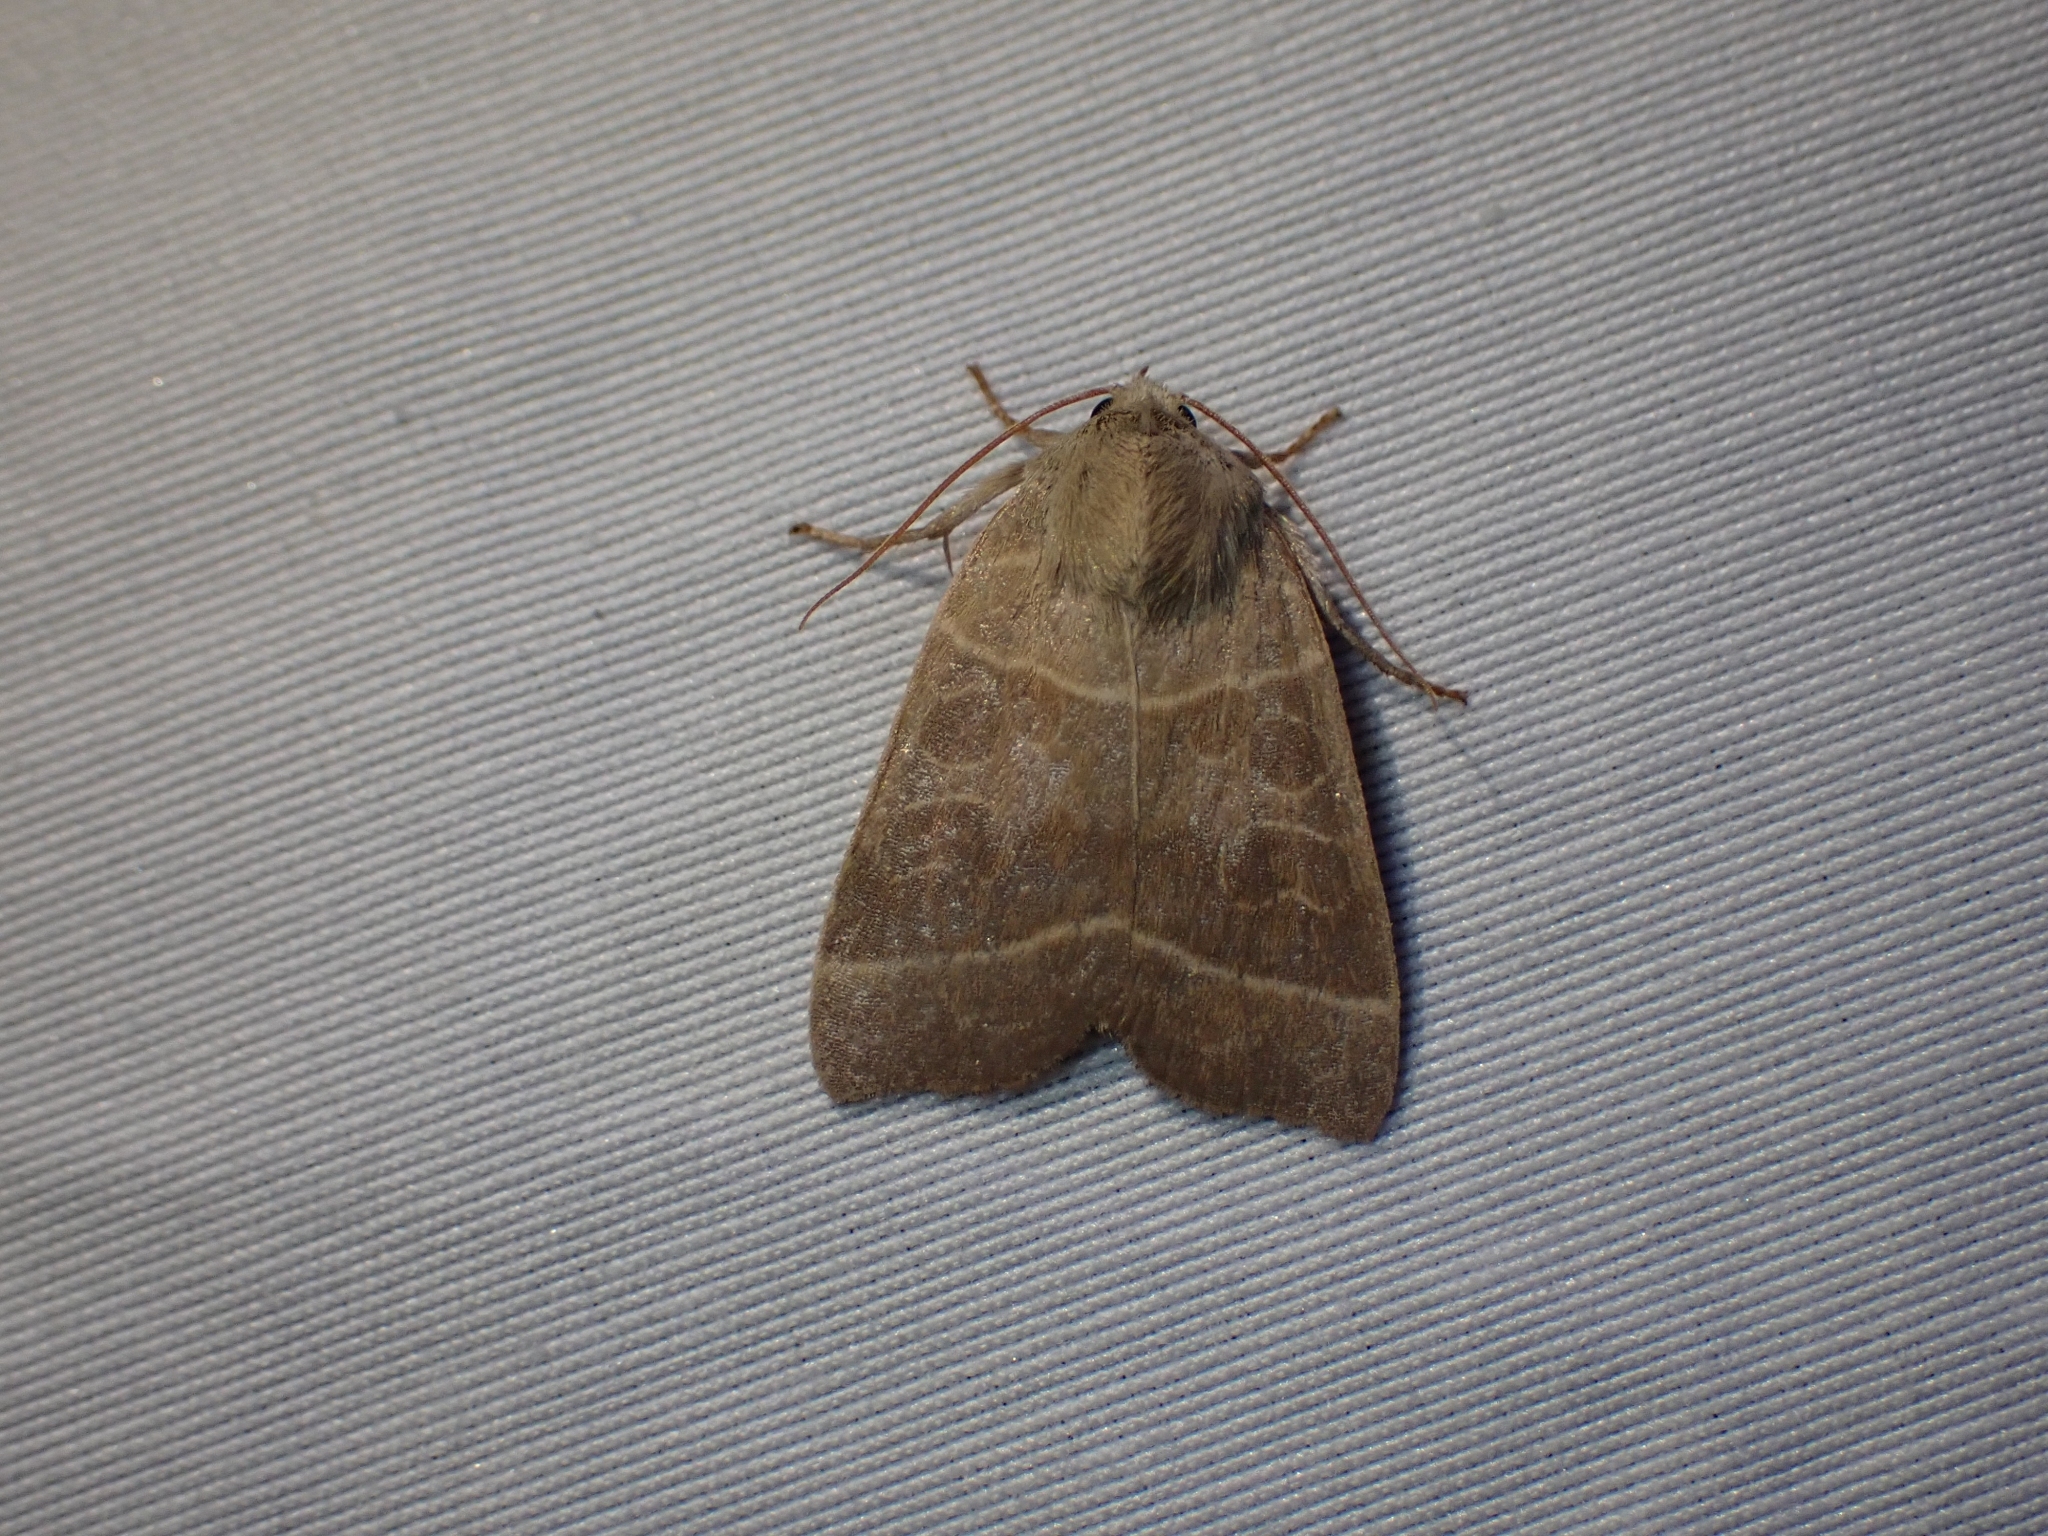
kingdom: Animalia
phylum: Arthropoda
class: Insecta
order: Lepidoptera
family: Noctuidae
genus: Ipimorpha
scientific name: Ipimorpha pleonectusa
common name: Even-lined sallow
